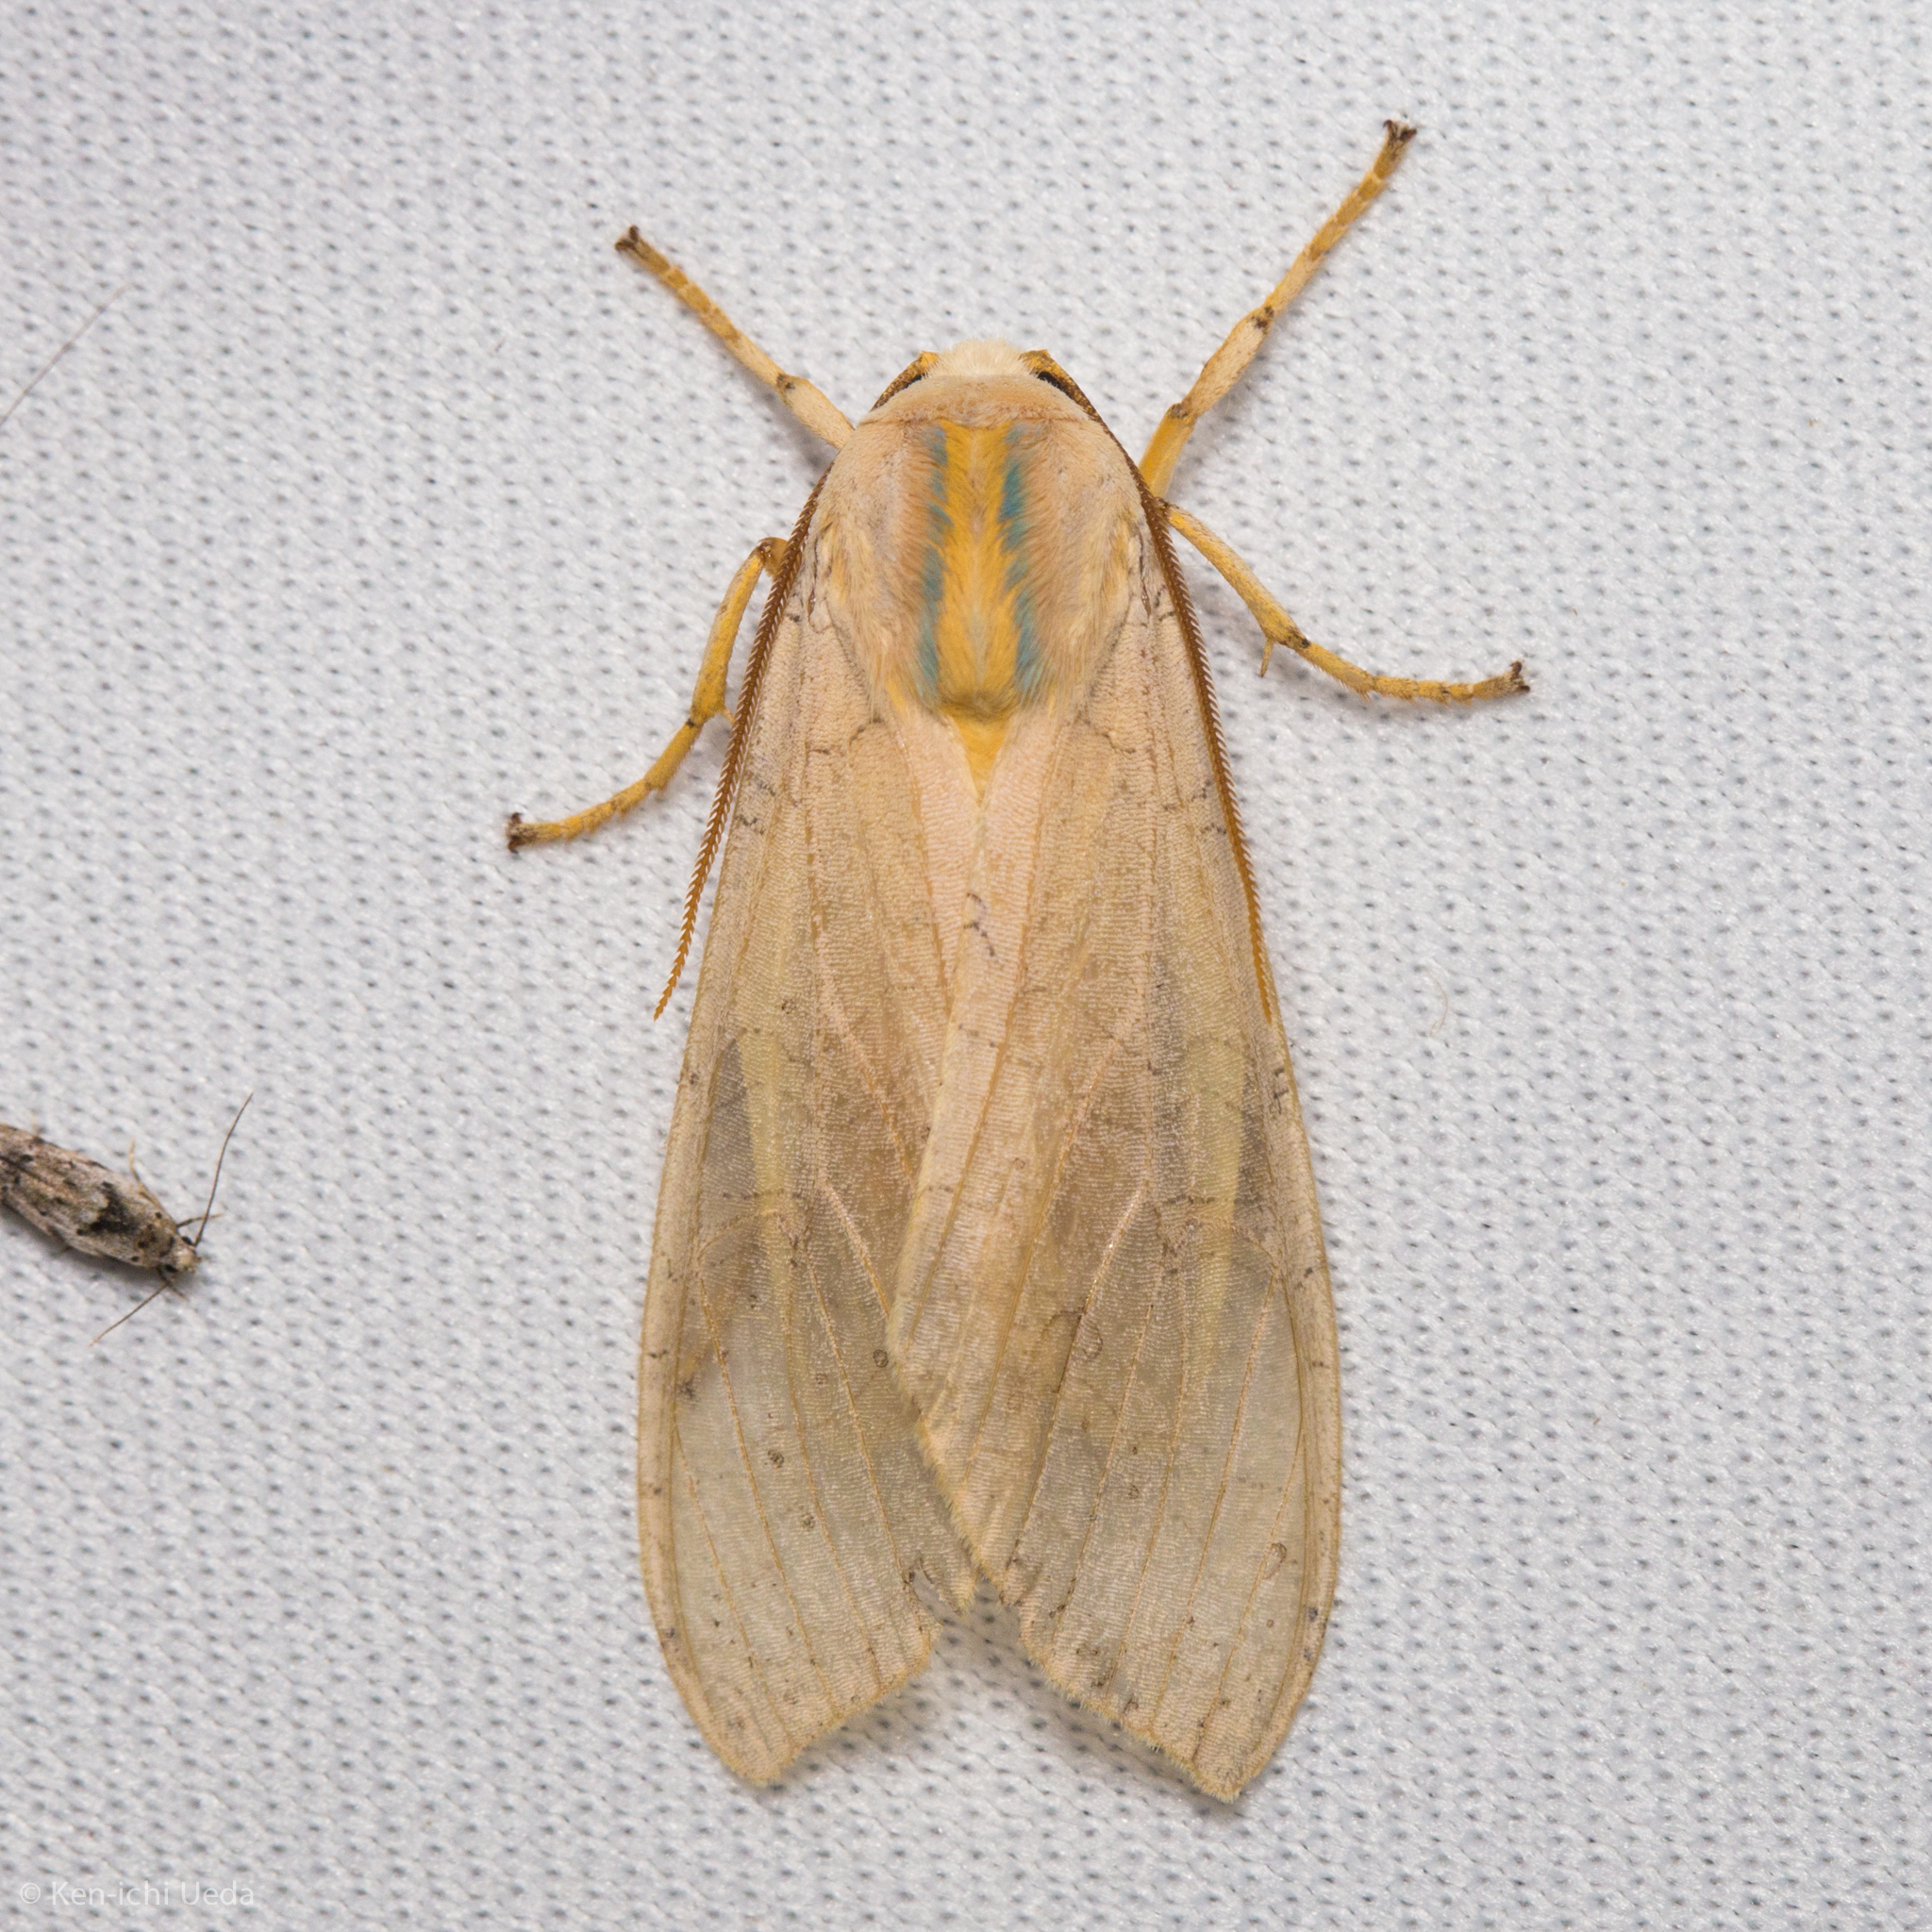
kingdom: Animalia
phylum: Arthropoda
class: Insecta
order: Lepidoptera
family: Erebidae
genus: Halysidota
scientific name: Halysidota
